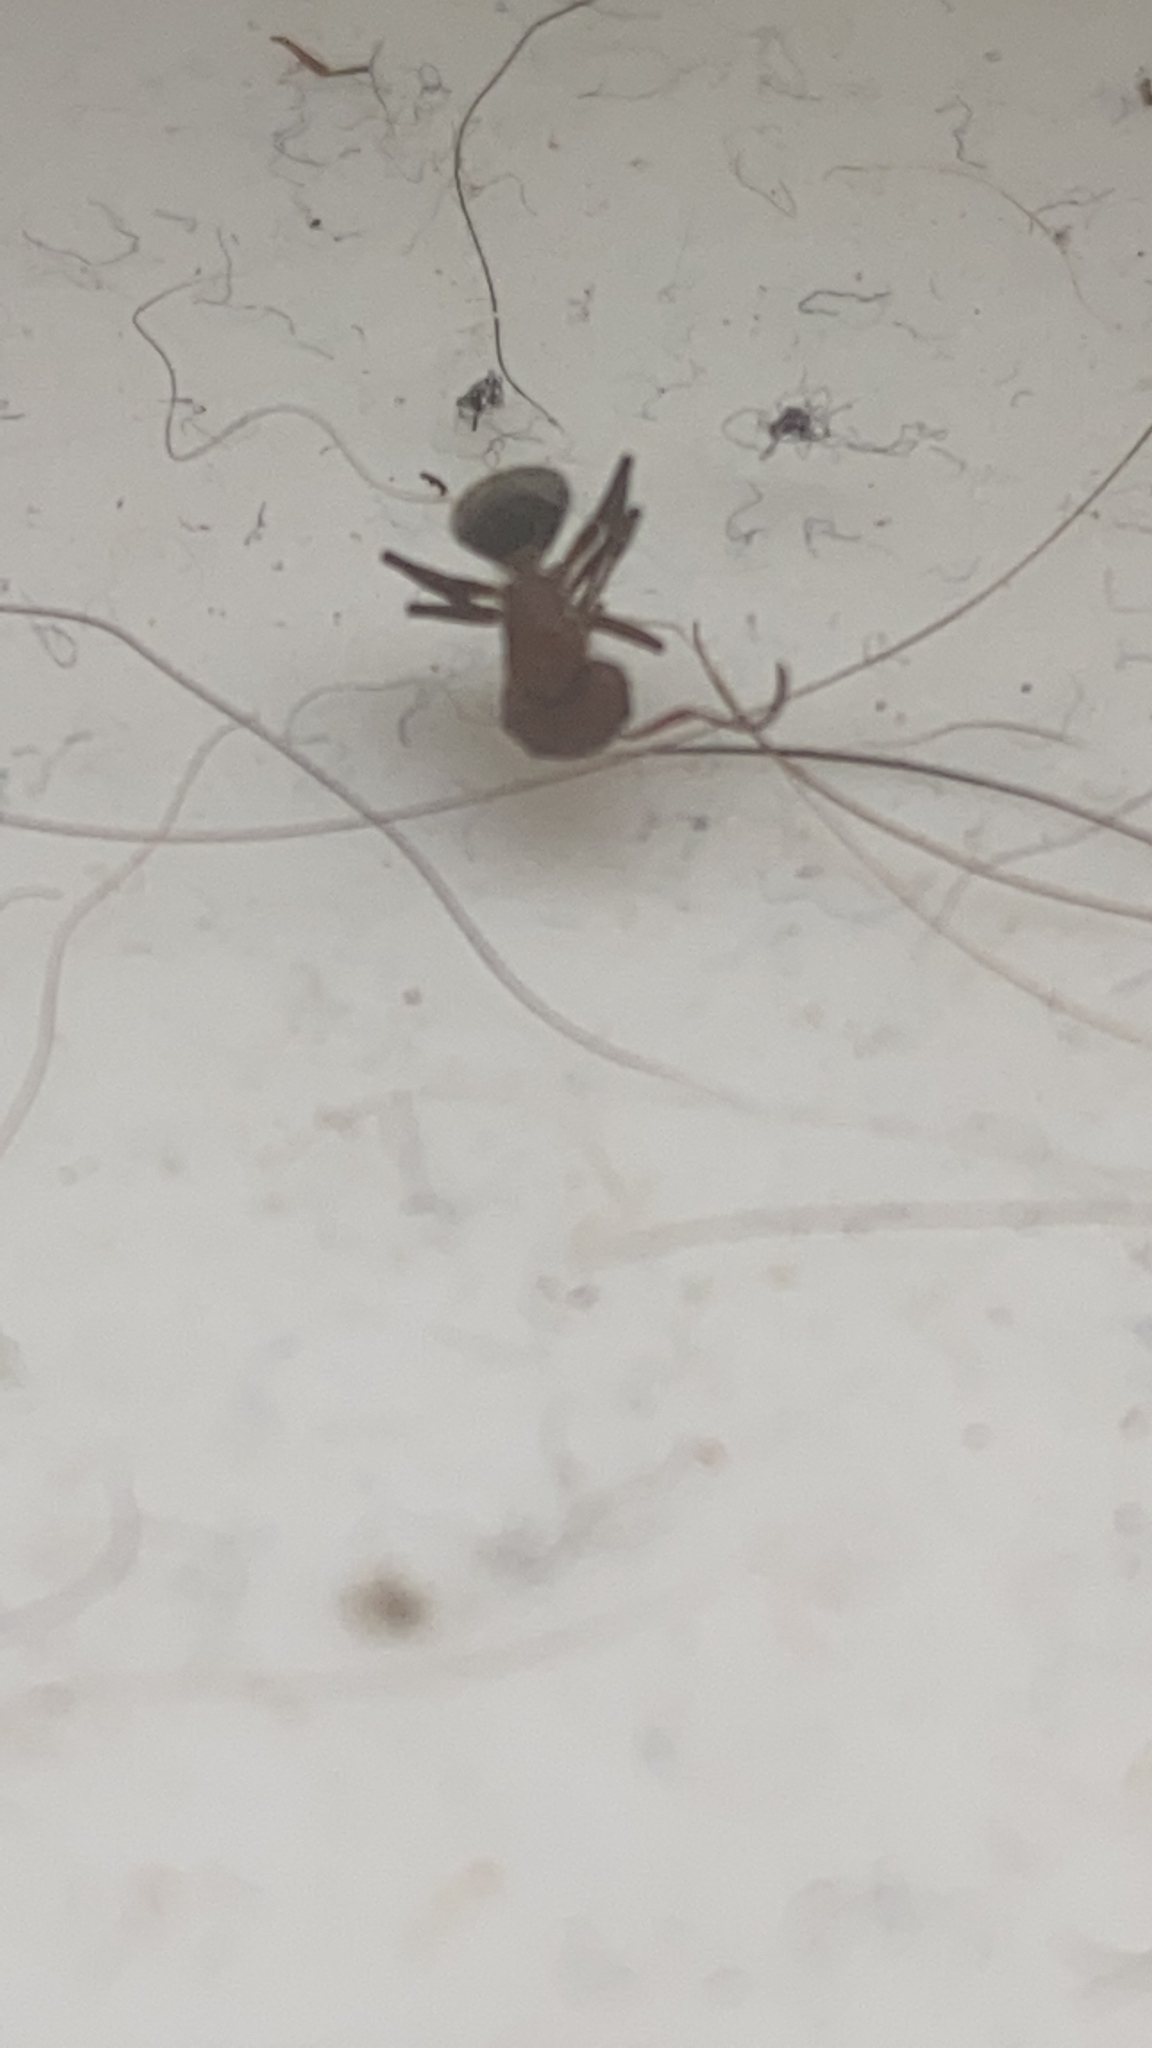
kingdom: Animalia
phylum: Arthropoda
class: Insecta
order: Hymenoptera
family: Formicidae
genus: Camponotus
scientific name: Camponotus planatus
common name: Compact carpenter ant
